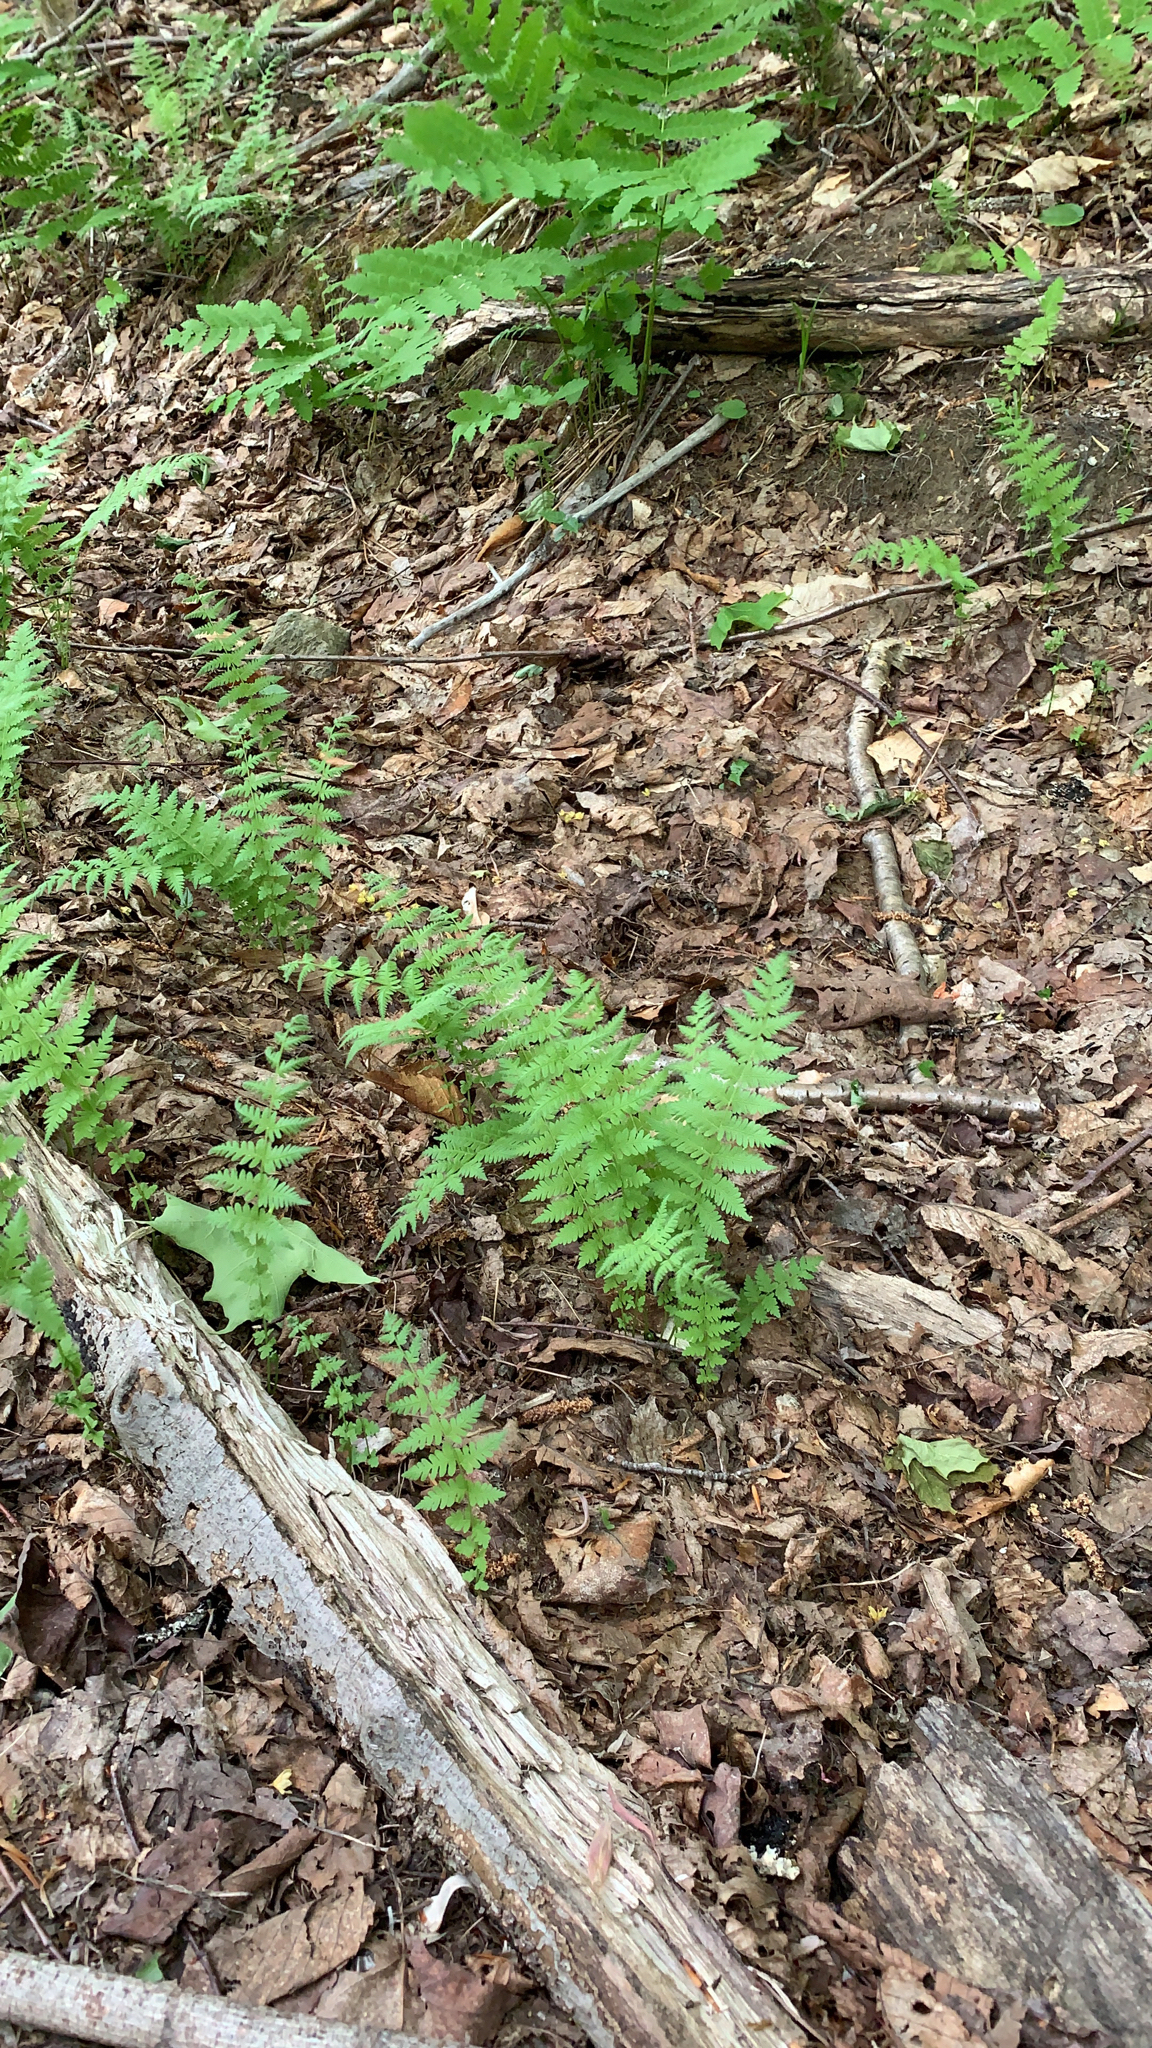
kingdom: Plantae
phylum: Tracheophyta
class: Polypodiopsida
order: Polypodiales
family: Thelypteridaceae
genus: Amauropelta
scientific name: Amauropelta noveboracensis
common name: New york fern
